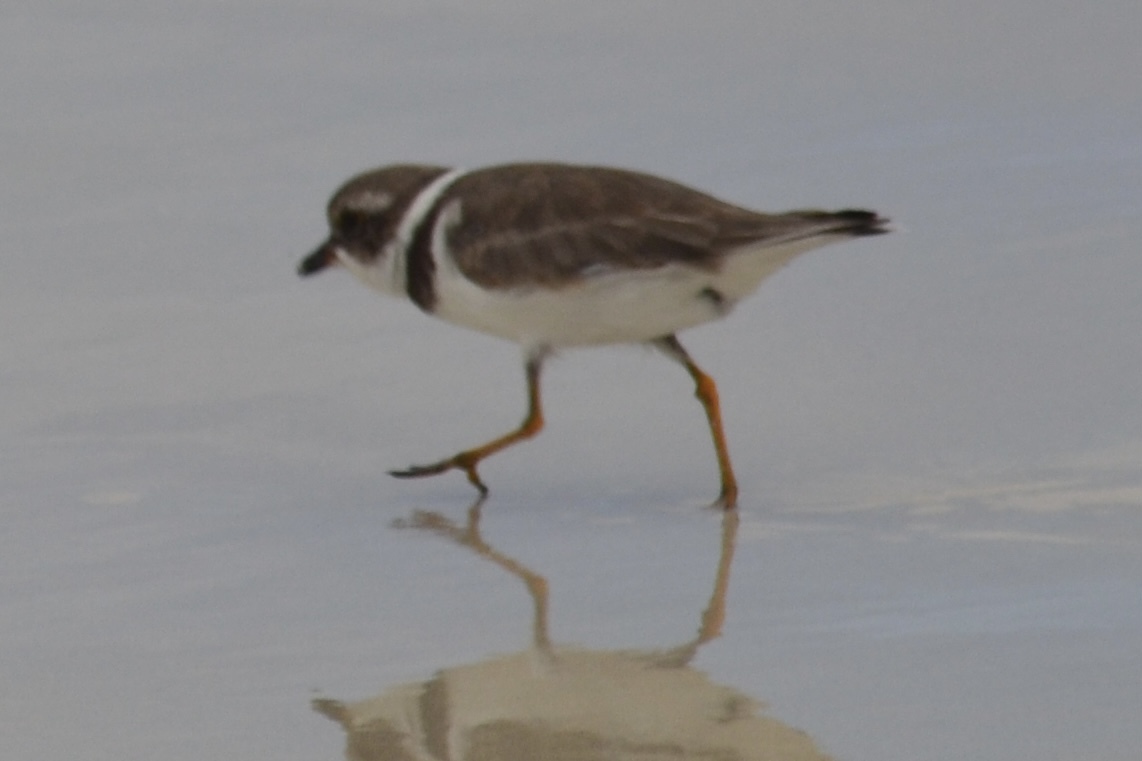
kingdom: Animalia
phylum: Chordata
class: Aves
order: Charadriiformes
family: Charadriidae
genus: Charadrius
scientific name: Charadrius semipalmatus
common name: Semipalmated plover
